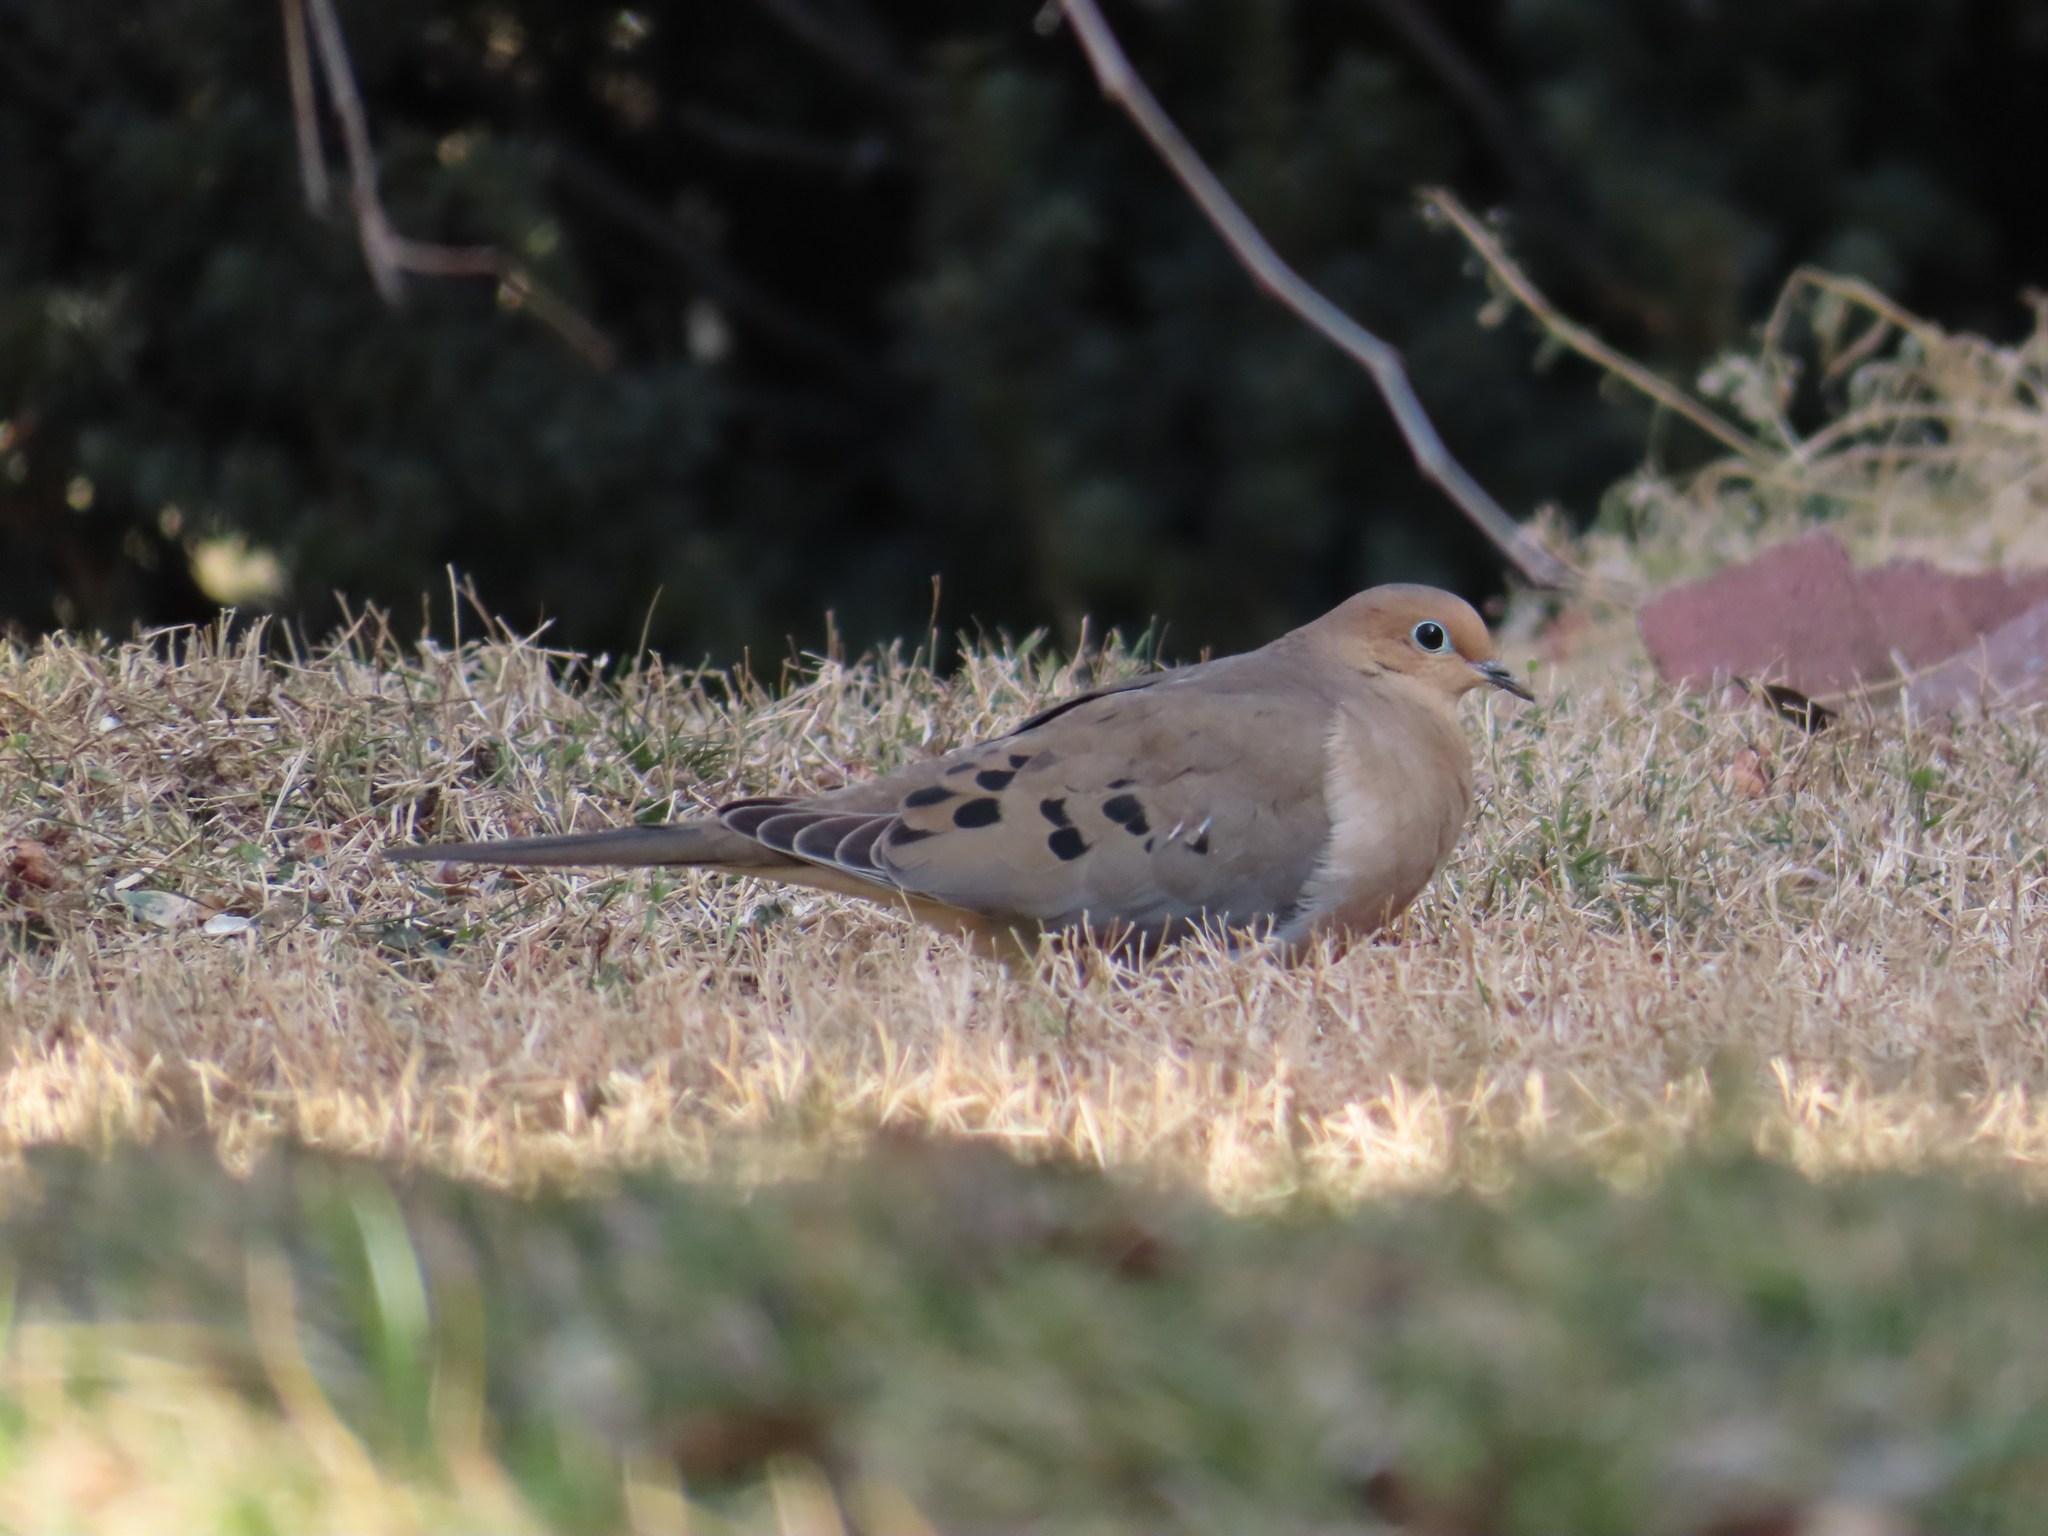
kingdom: Animalia
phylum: Chordata
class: Aves
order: Columbiformes
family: Columbidae
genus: Zenaida
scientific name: Zenaida macroura
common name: Mourning dove
